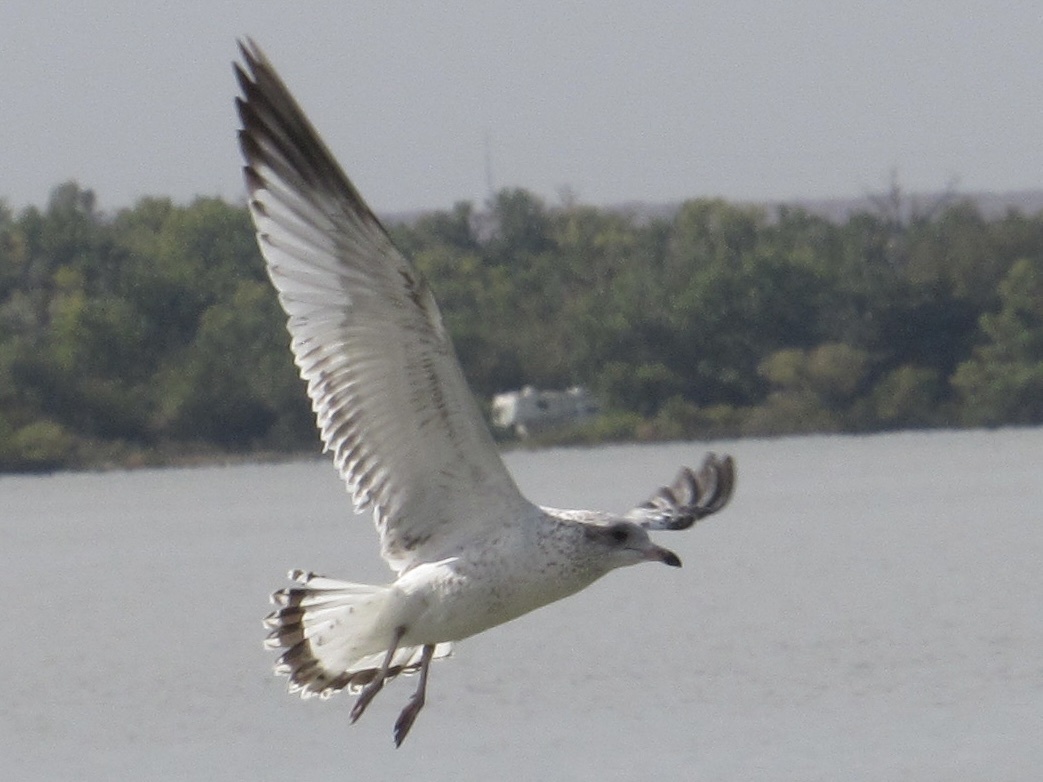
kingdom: Animalia
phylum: Chordata
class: Aves
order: Charadriiformes
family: Laridae
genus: Larus
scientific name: Larus delawarensis
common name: Ring-billed gull
